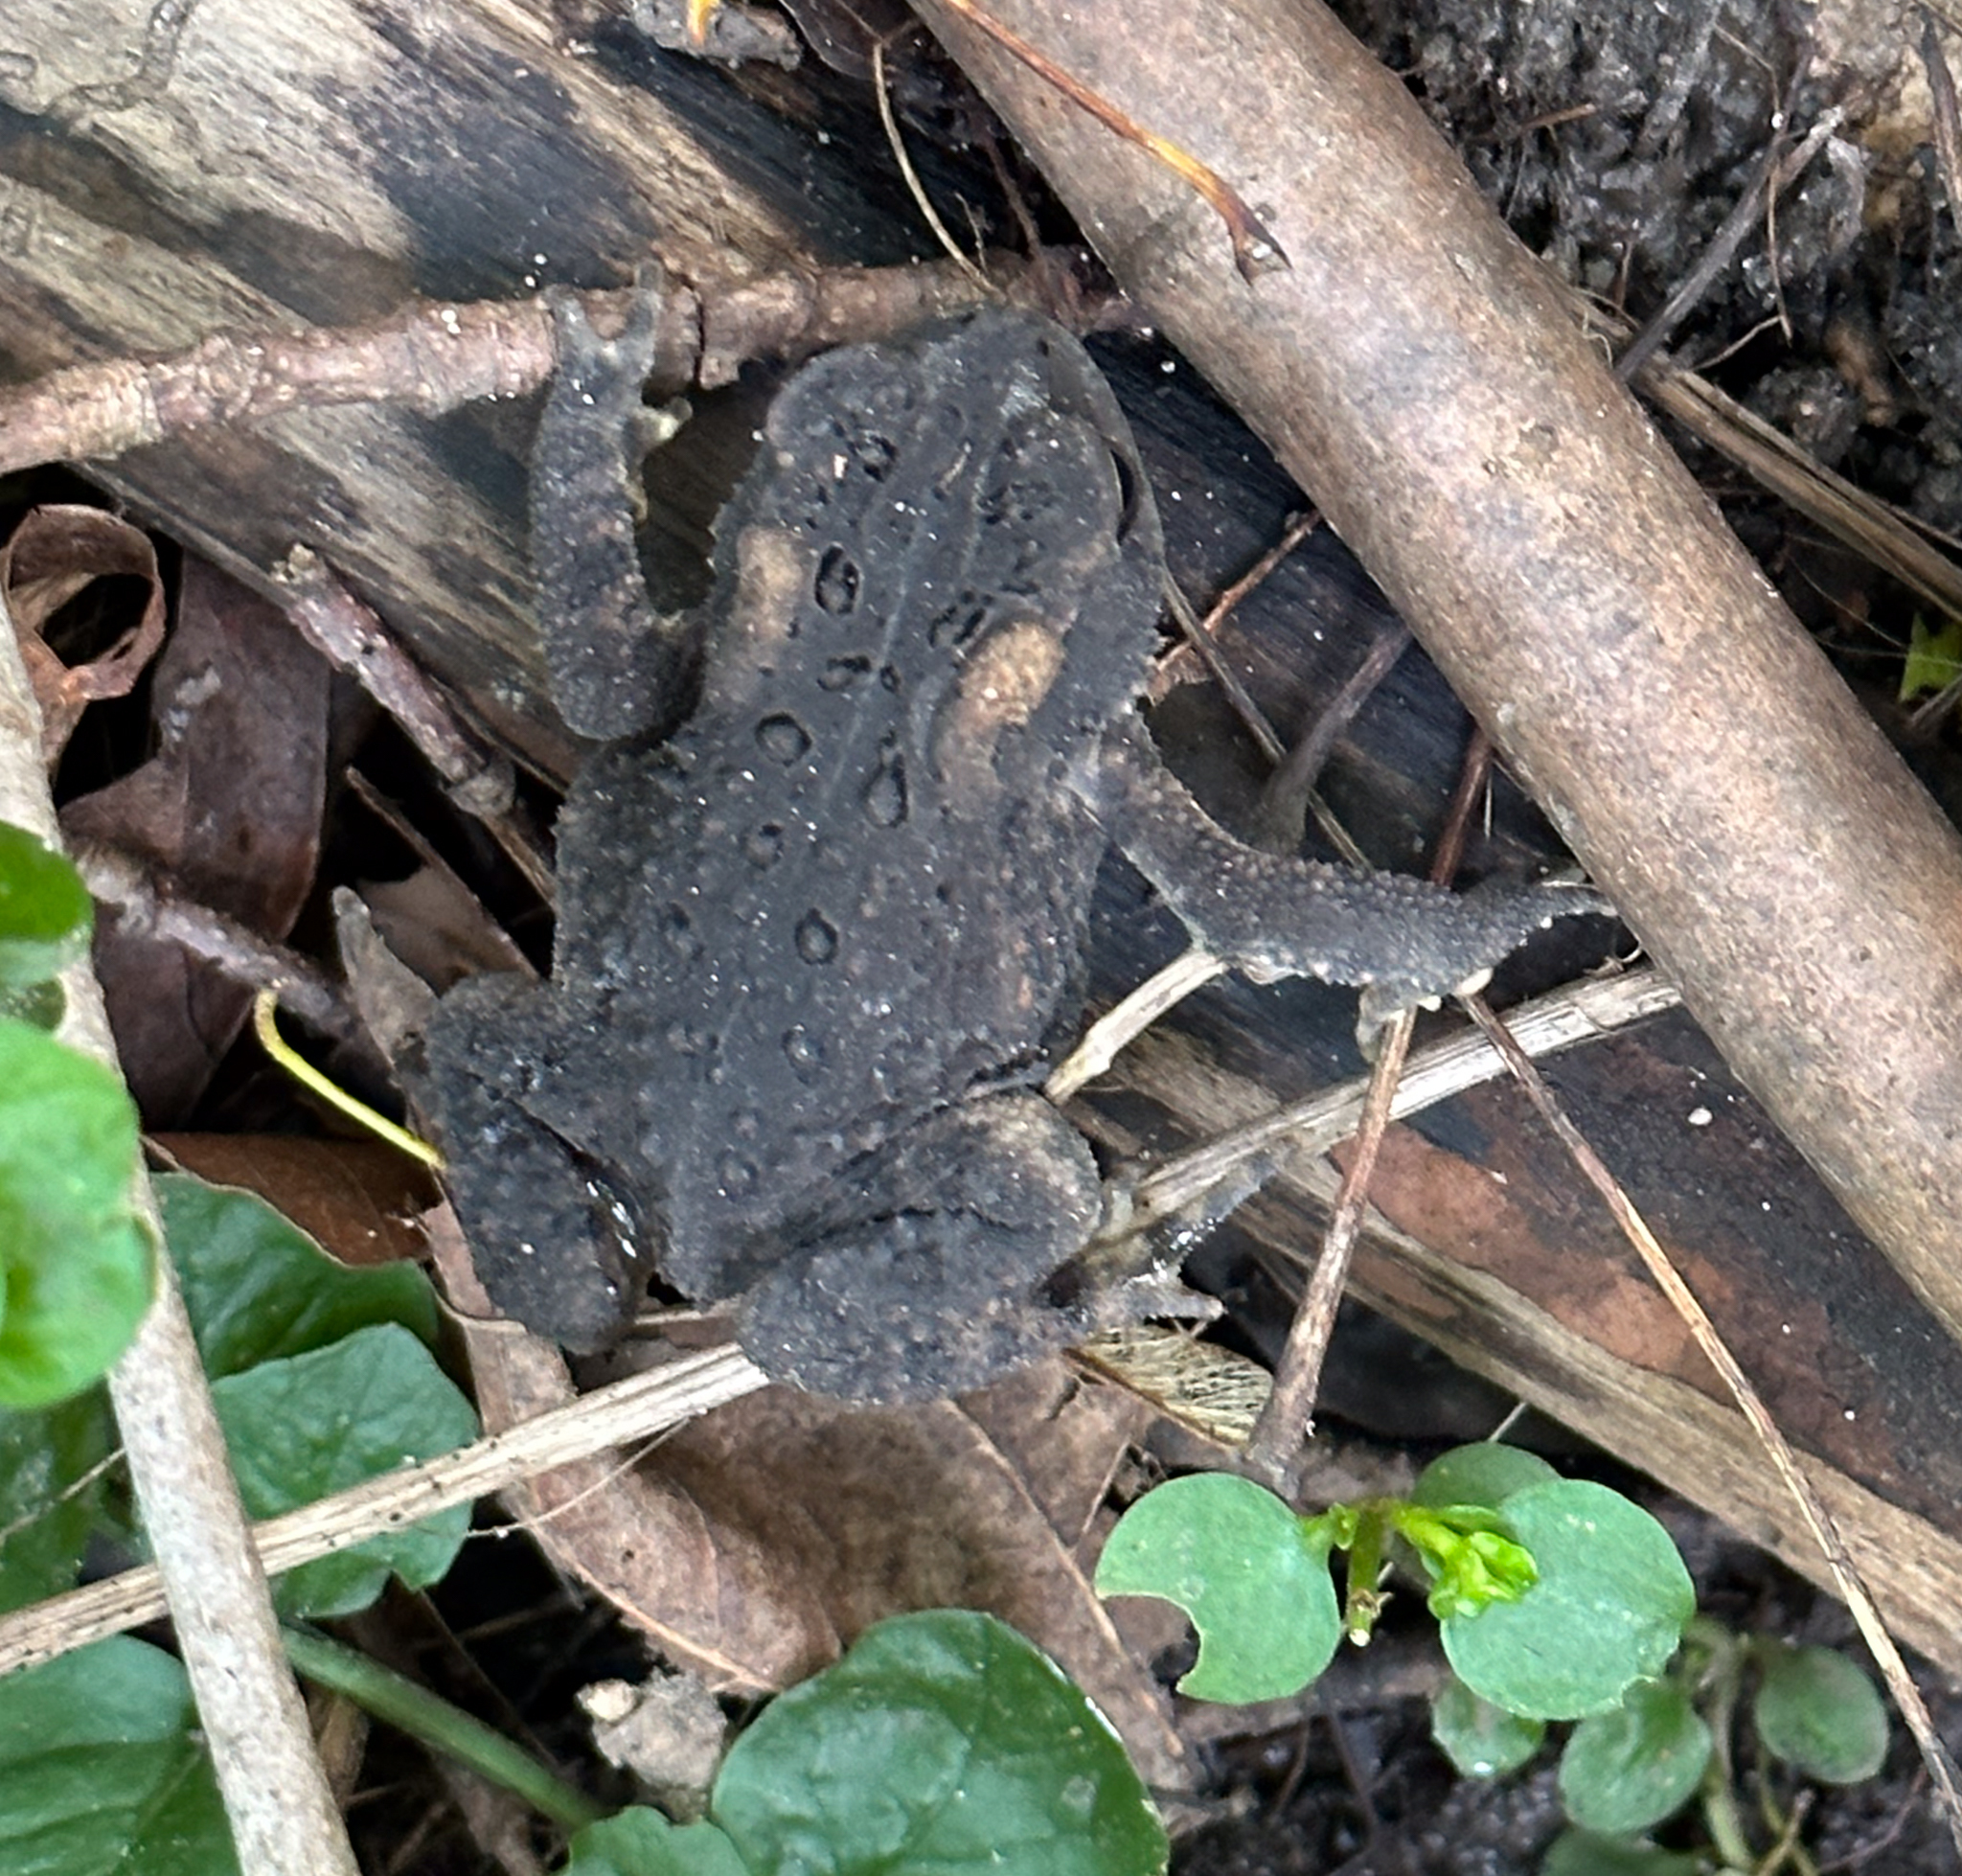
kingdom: Animalia
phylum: Chordata
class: Amphibia
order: Anura
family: Bufonidae
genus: Anaxyrus
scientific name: Anaxyrus americanus
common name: American toad
